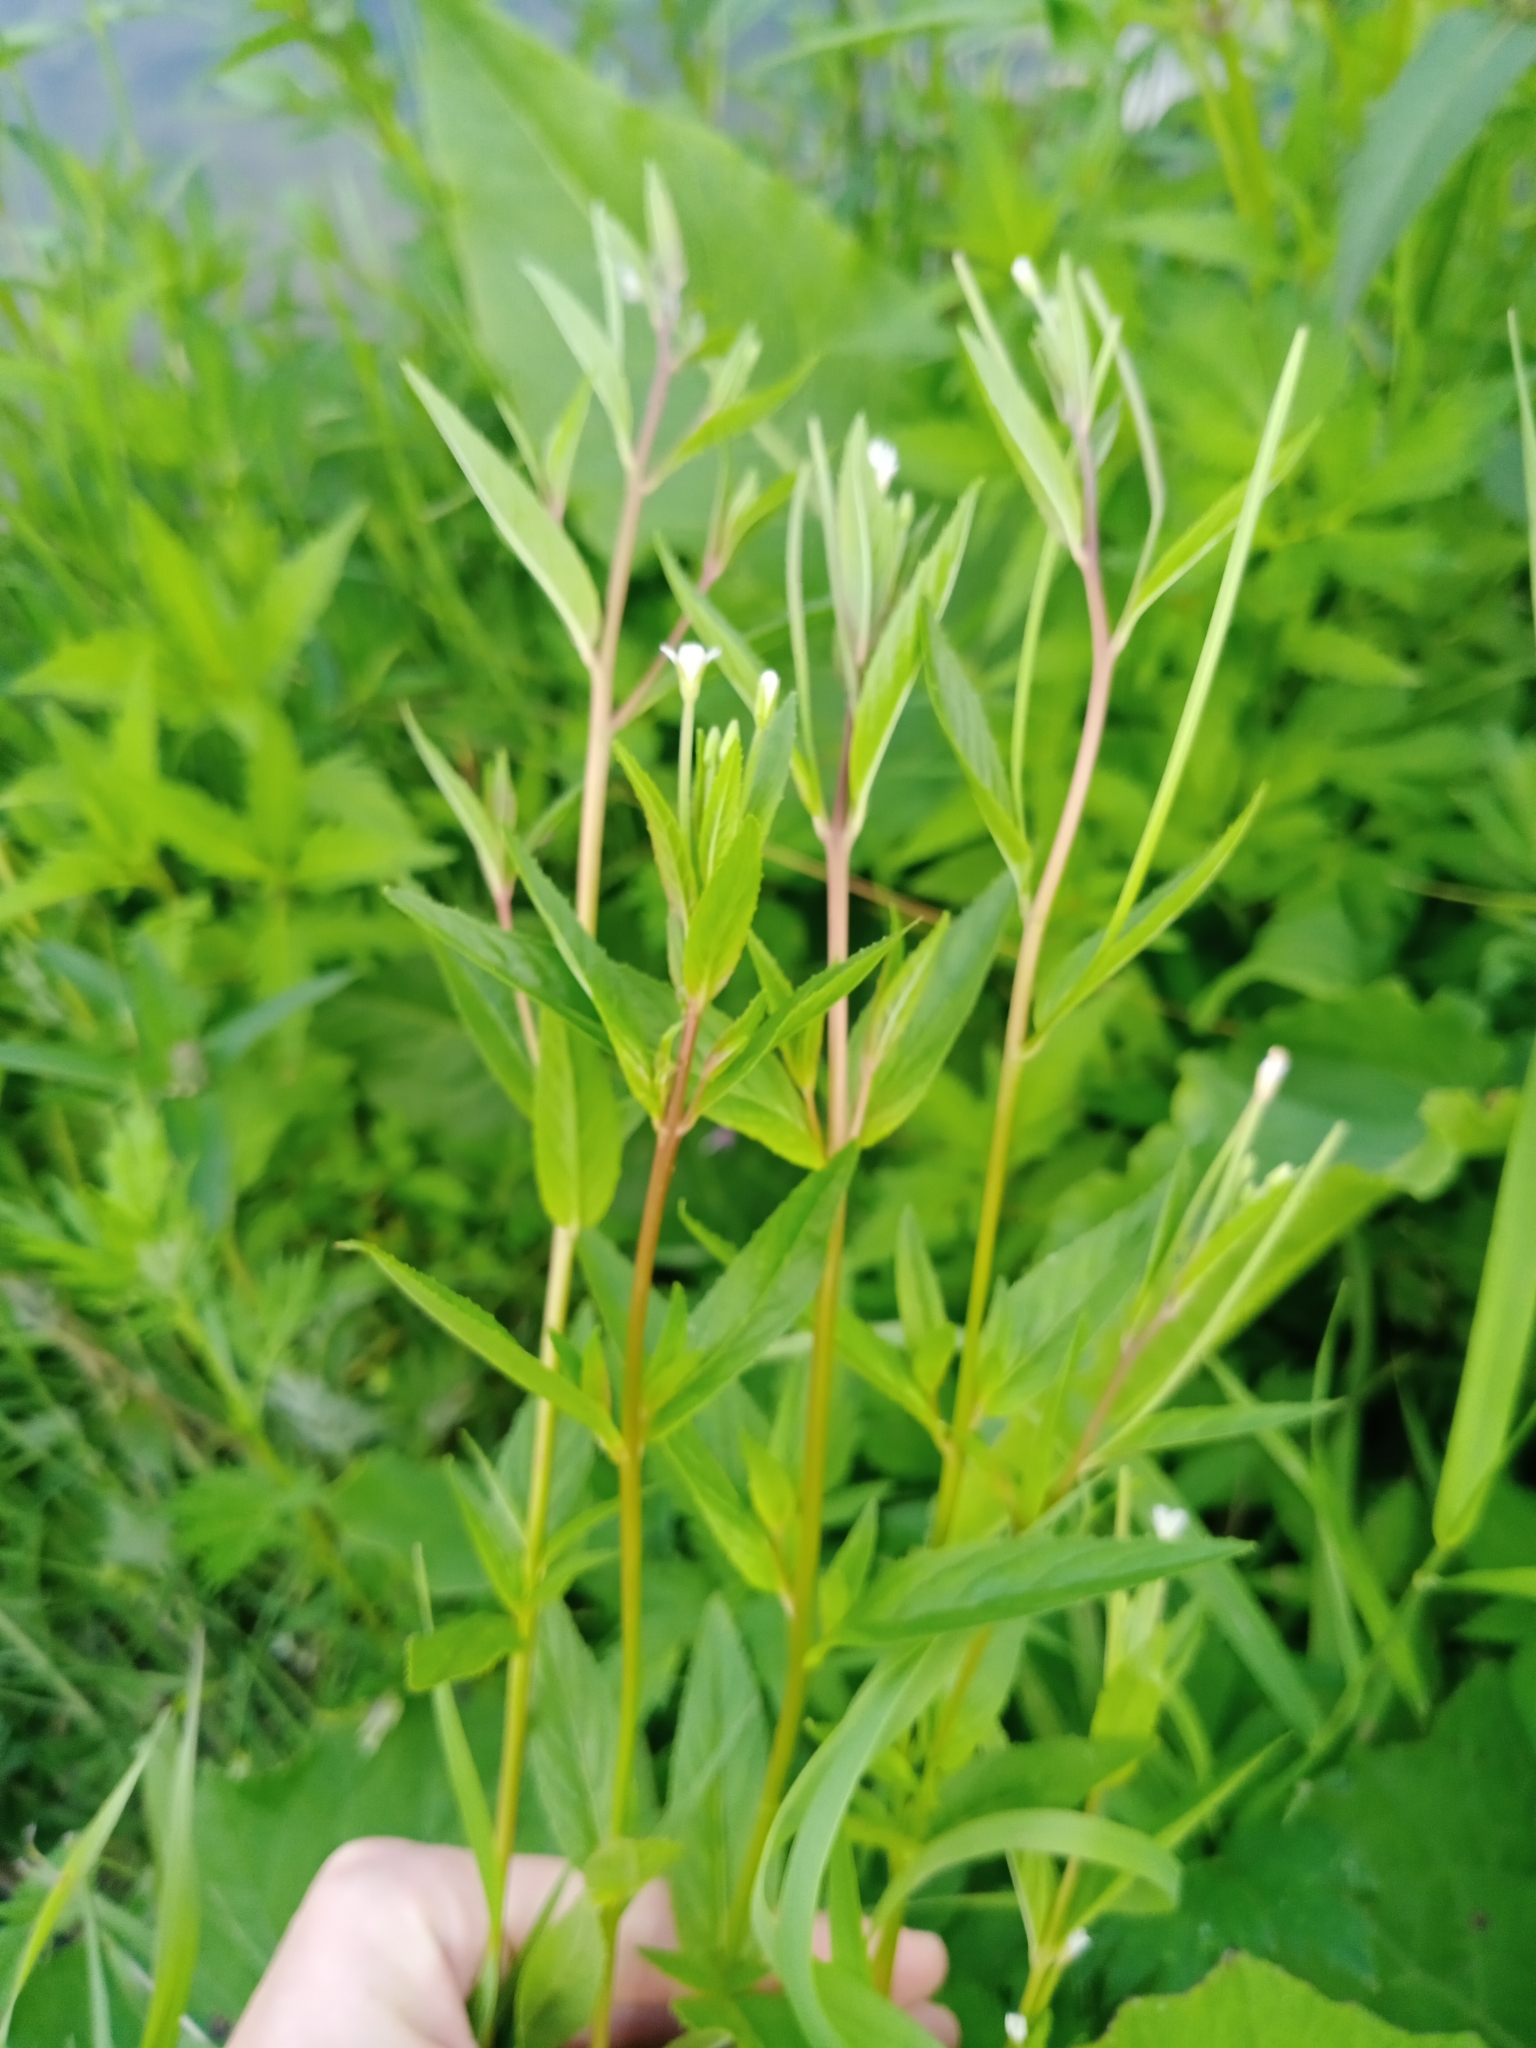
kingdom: Plantae
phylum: Tracheophyta
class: Magnoliopsida
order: Myrtales
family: Onagraceae
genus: Epilobium
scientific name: Epilobium pseudorubescens
